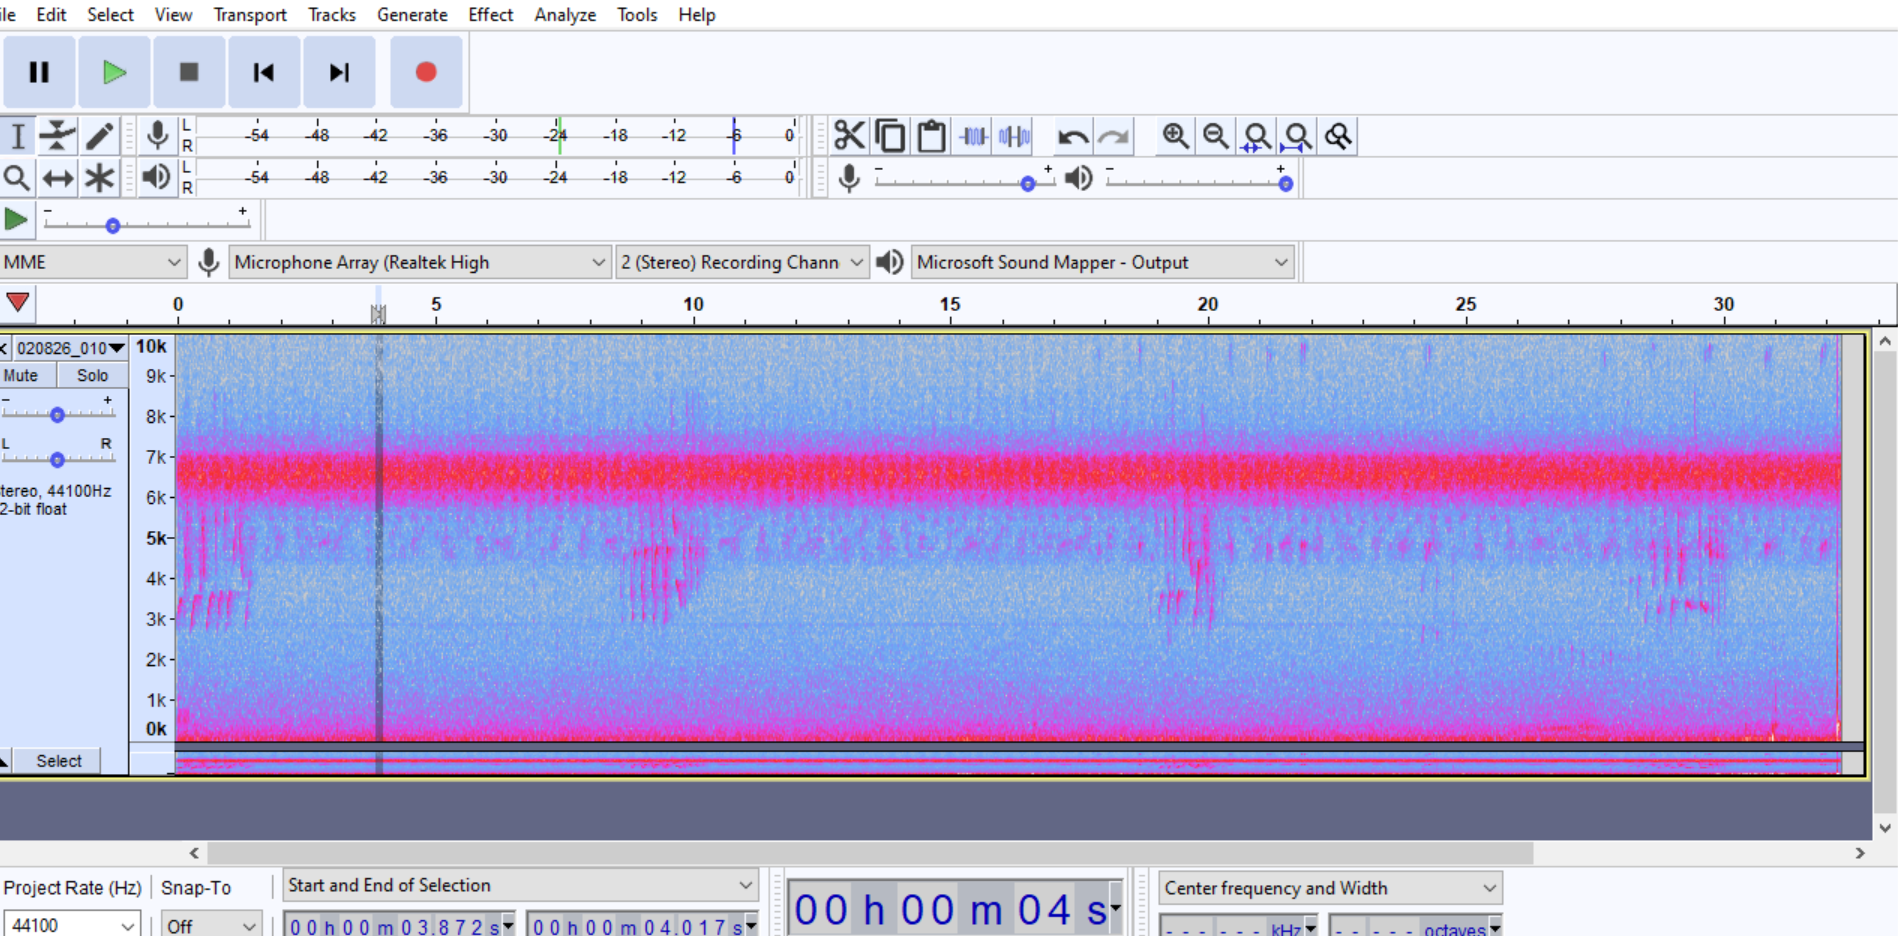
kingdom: Animalia
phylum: Arthropoda
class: Insecta
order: Orthoptera
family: Trigonidiidae
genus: Cyrtoxipha
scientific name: Cyrtoxipha columbiana
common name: Columbian trig
